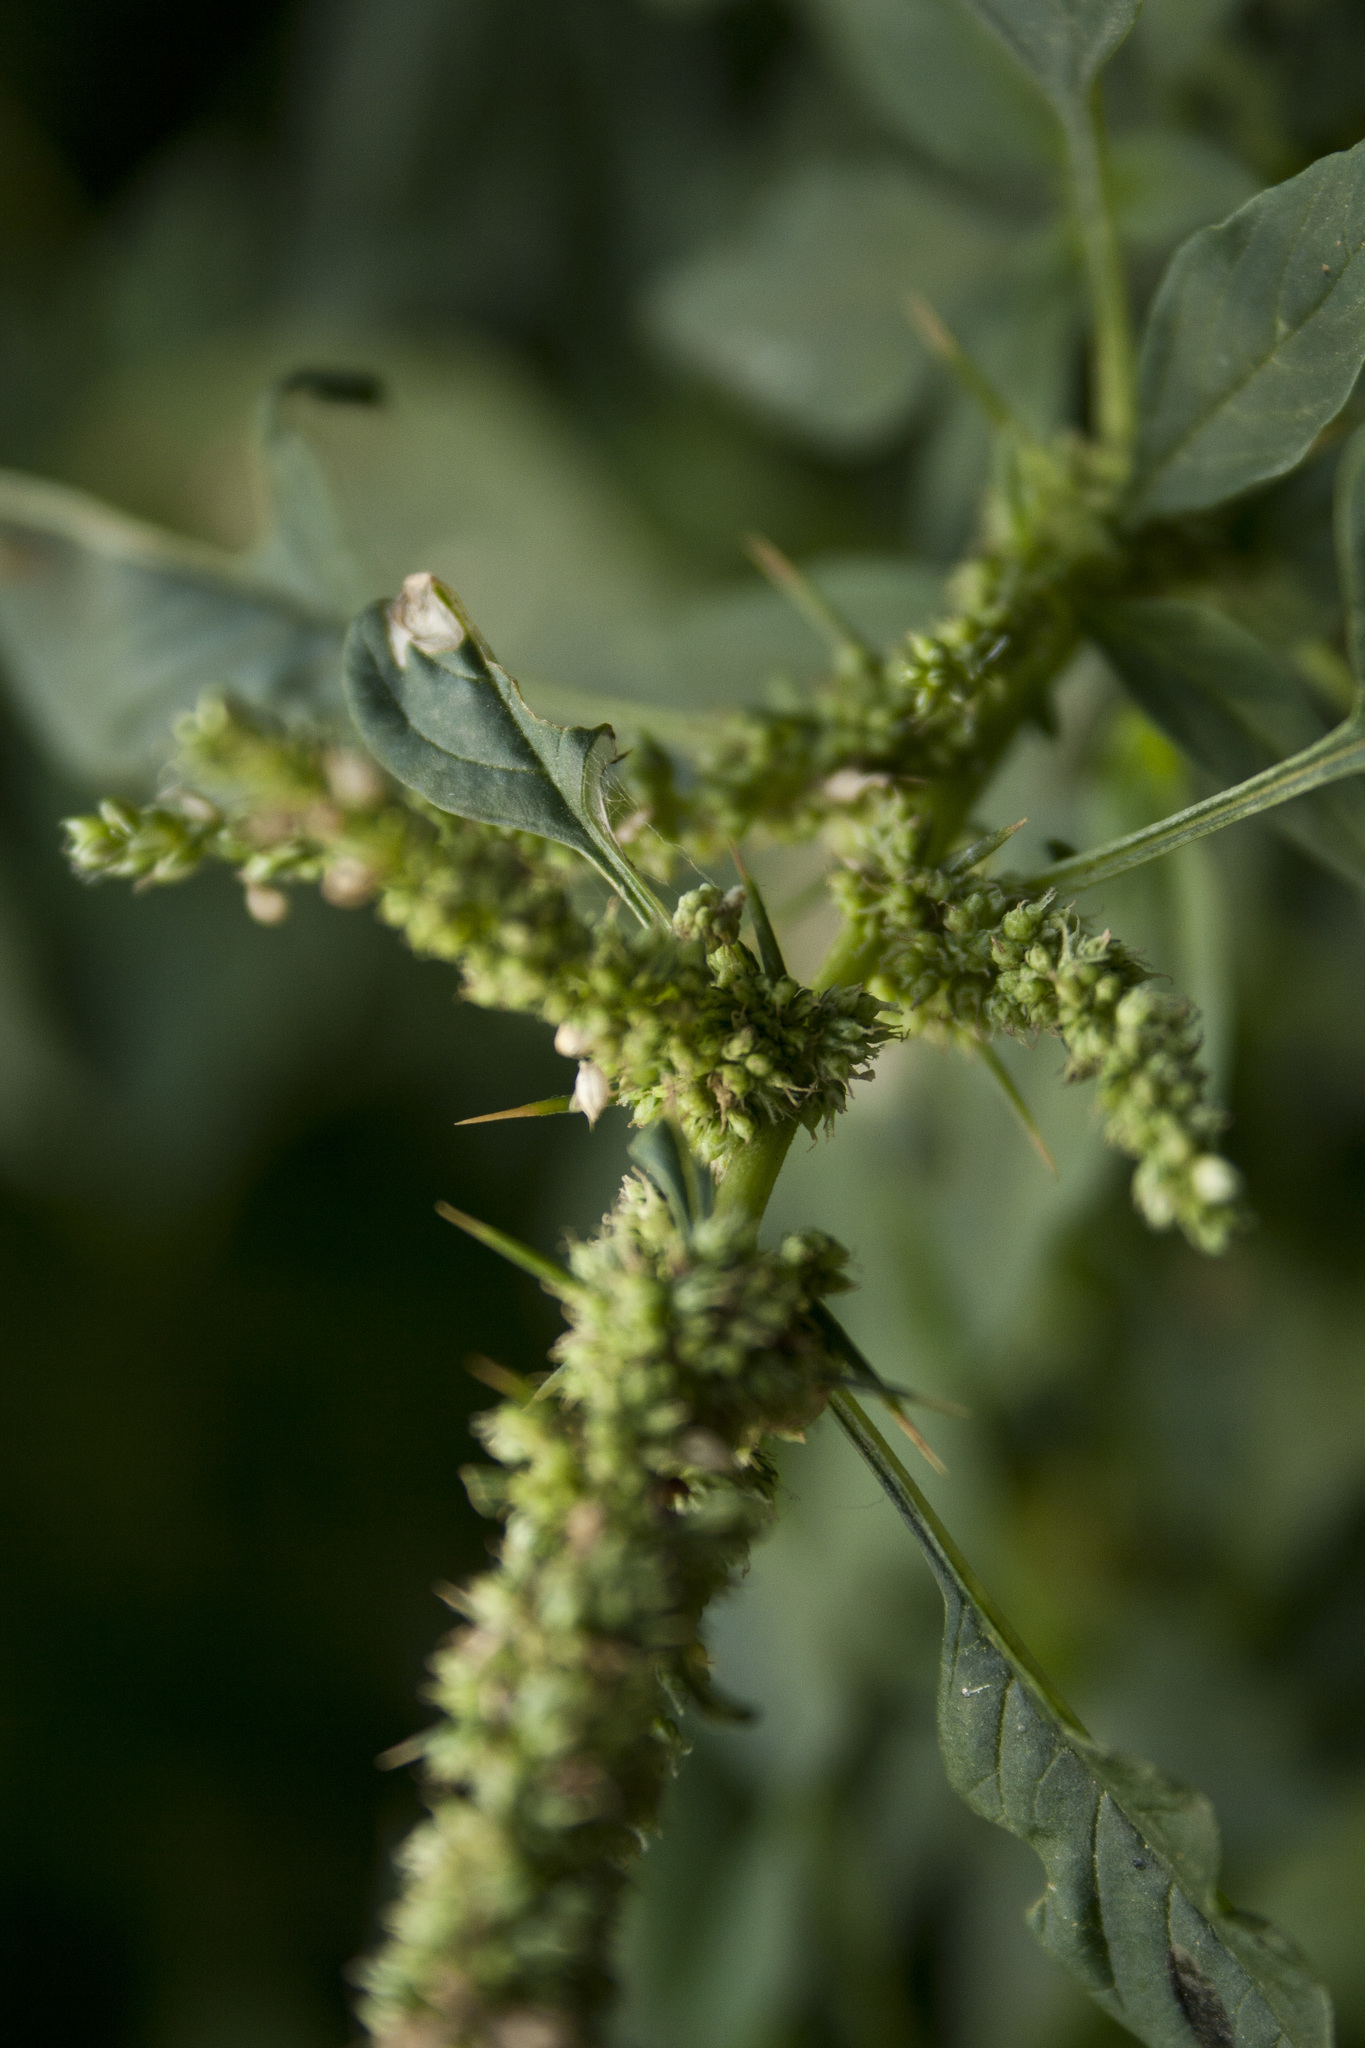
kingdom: Plantae
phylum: Tracheophyta
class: Magnoliopsida
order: Caryophyllales
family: Amaranthaceae
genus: Amaranthus
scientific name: Amaranthus spinosus
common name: Spiny amaranth
